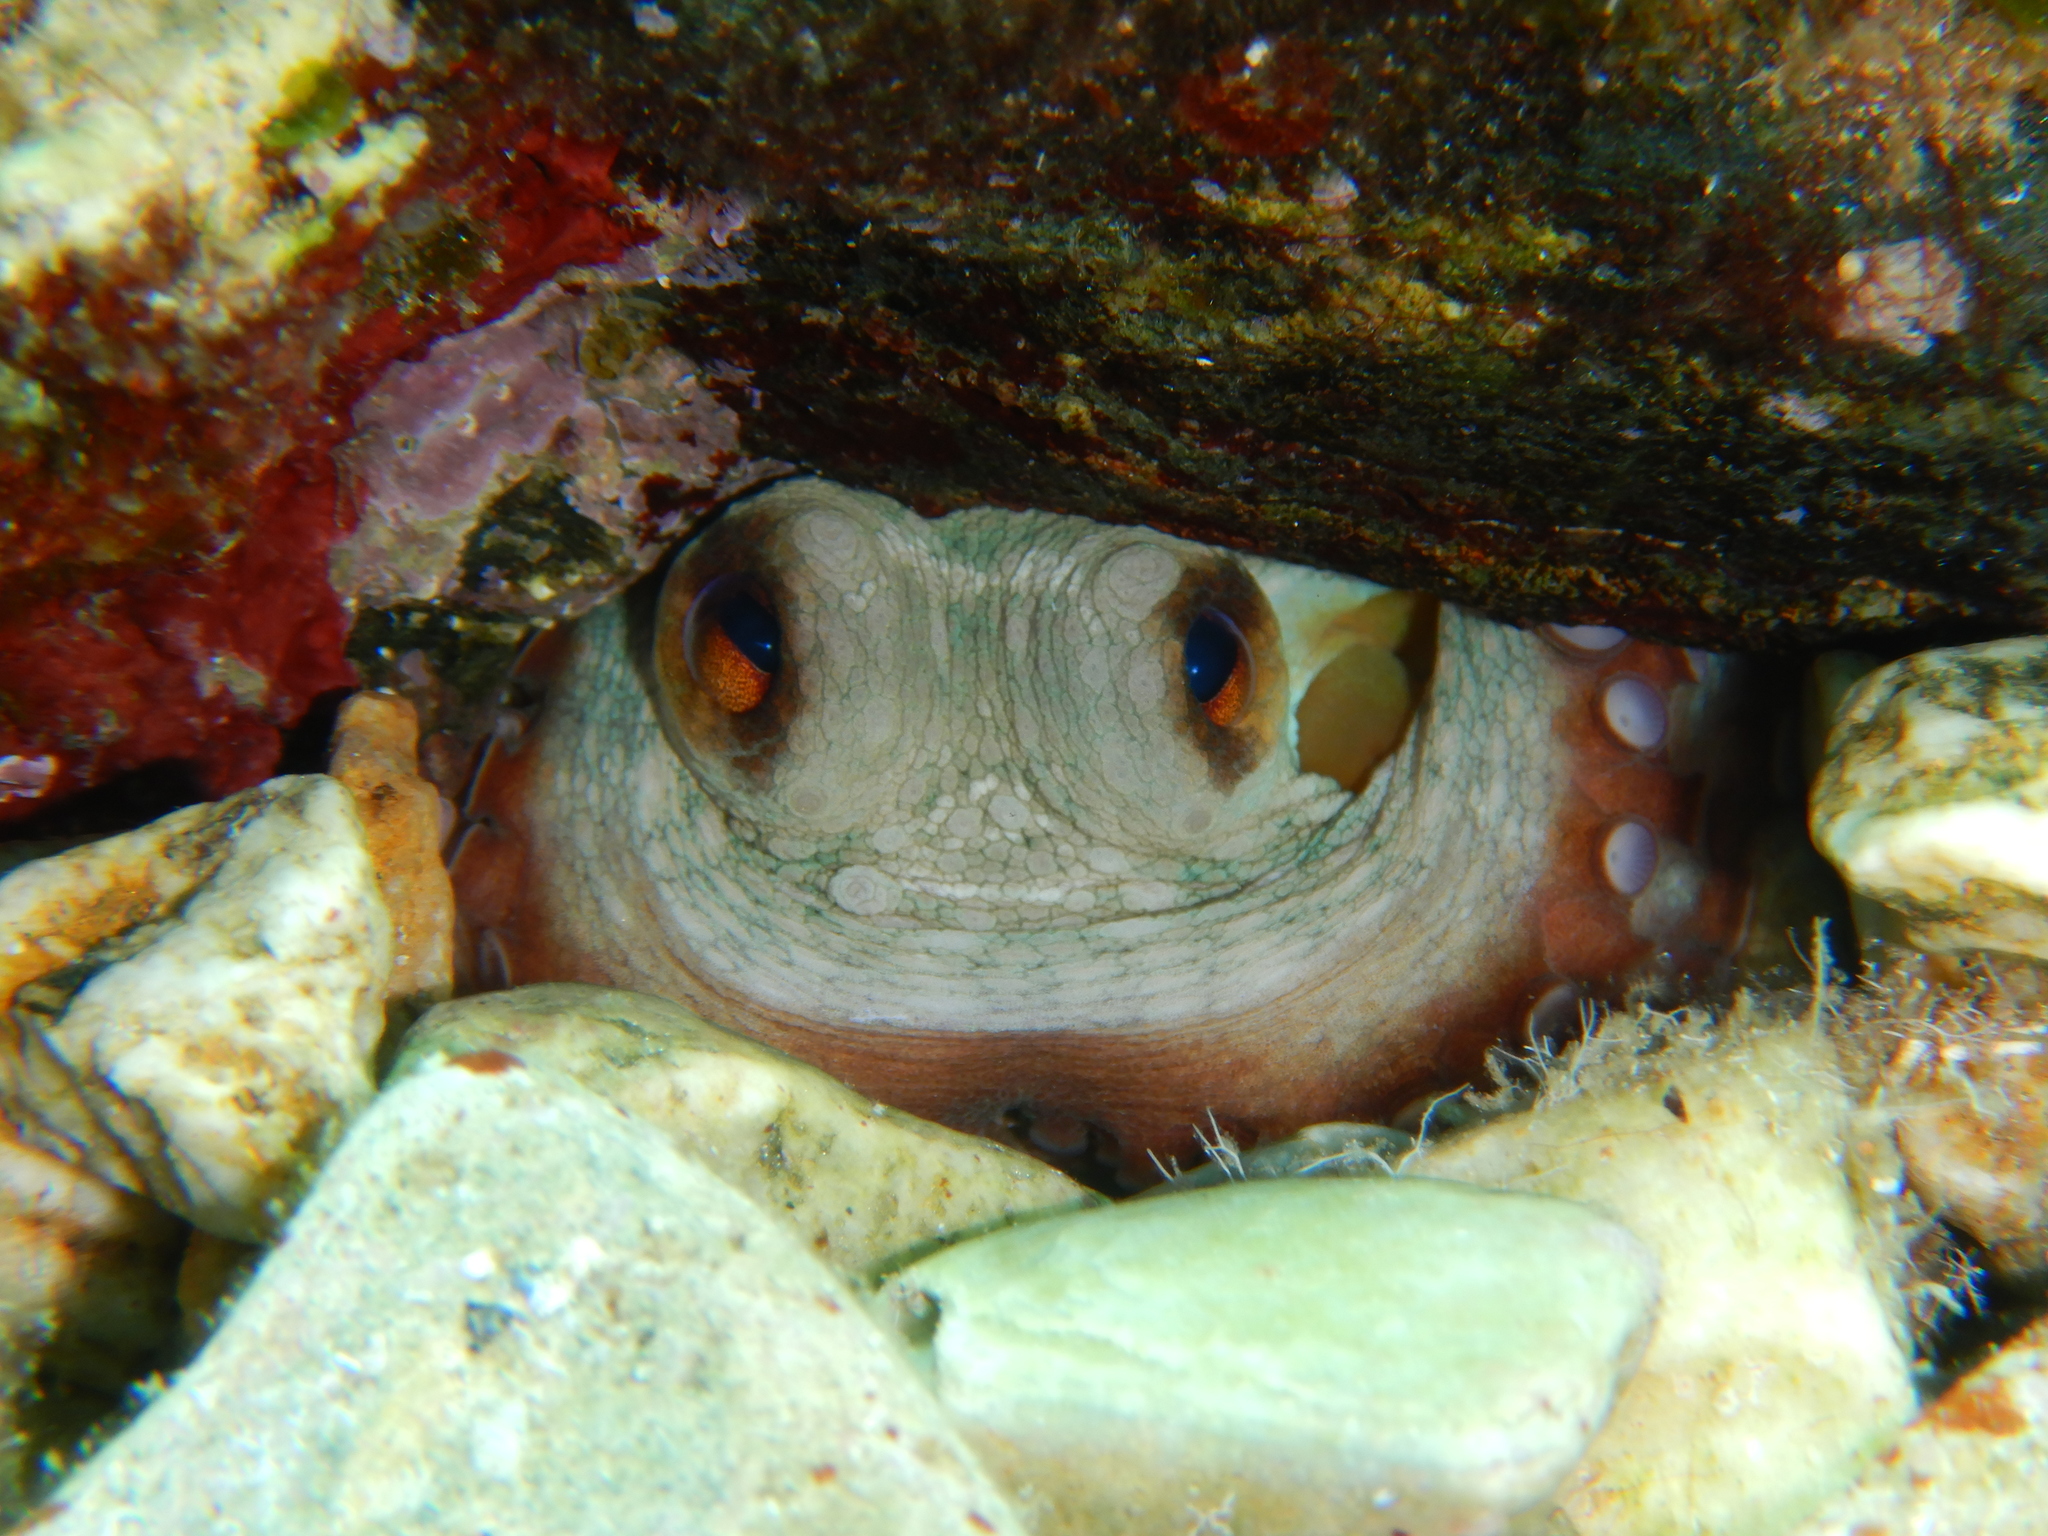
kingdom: Animalia
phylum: Mollusca
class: Cephalopoda
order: Octopoda
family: Octopodidae
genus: Octopus
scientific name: Octopus vulgaris
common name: Common octopus
